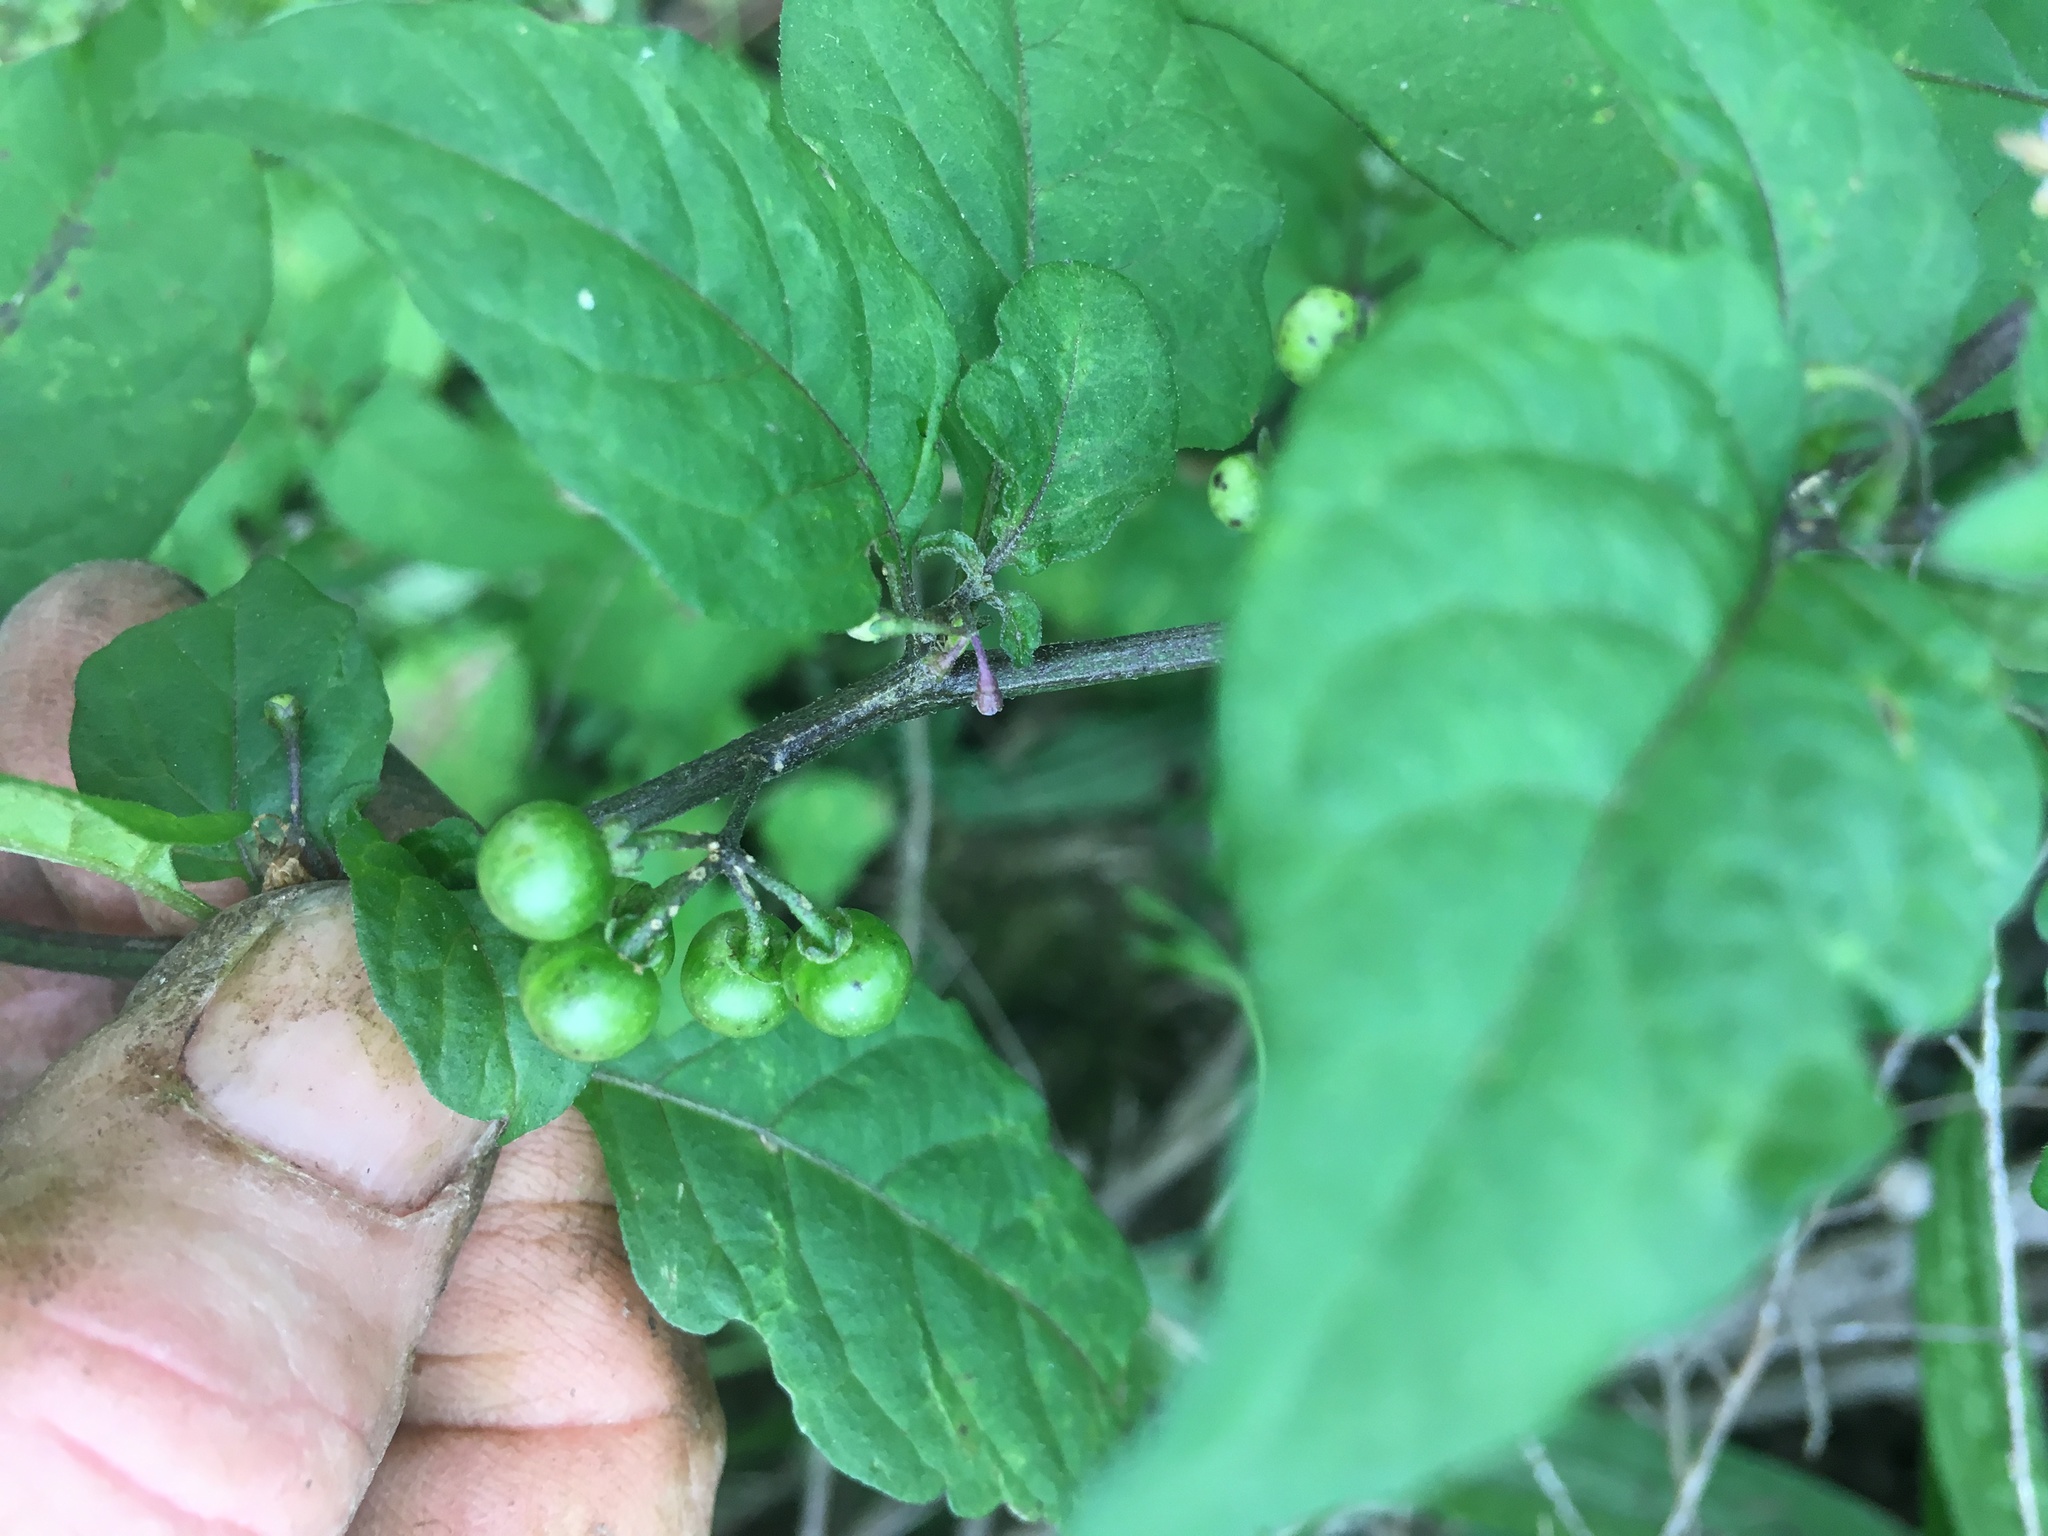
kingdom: Plantae
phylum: Tracheophyta
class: Magnoliopsida
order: Solanales
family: Solanaceae
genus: Solanum
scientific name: Solanum opacum
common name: Green-berry nightshade
